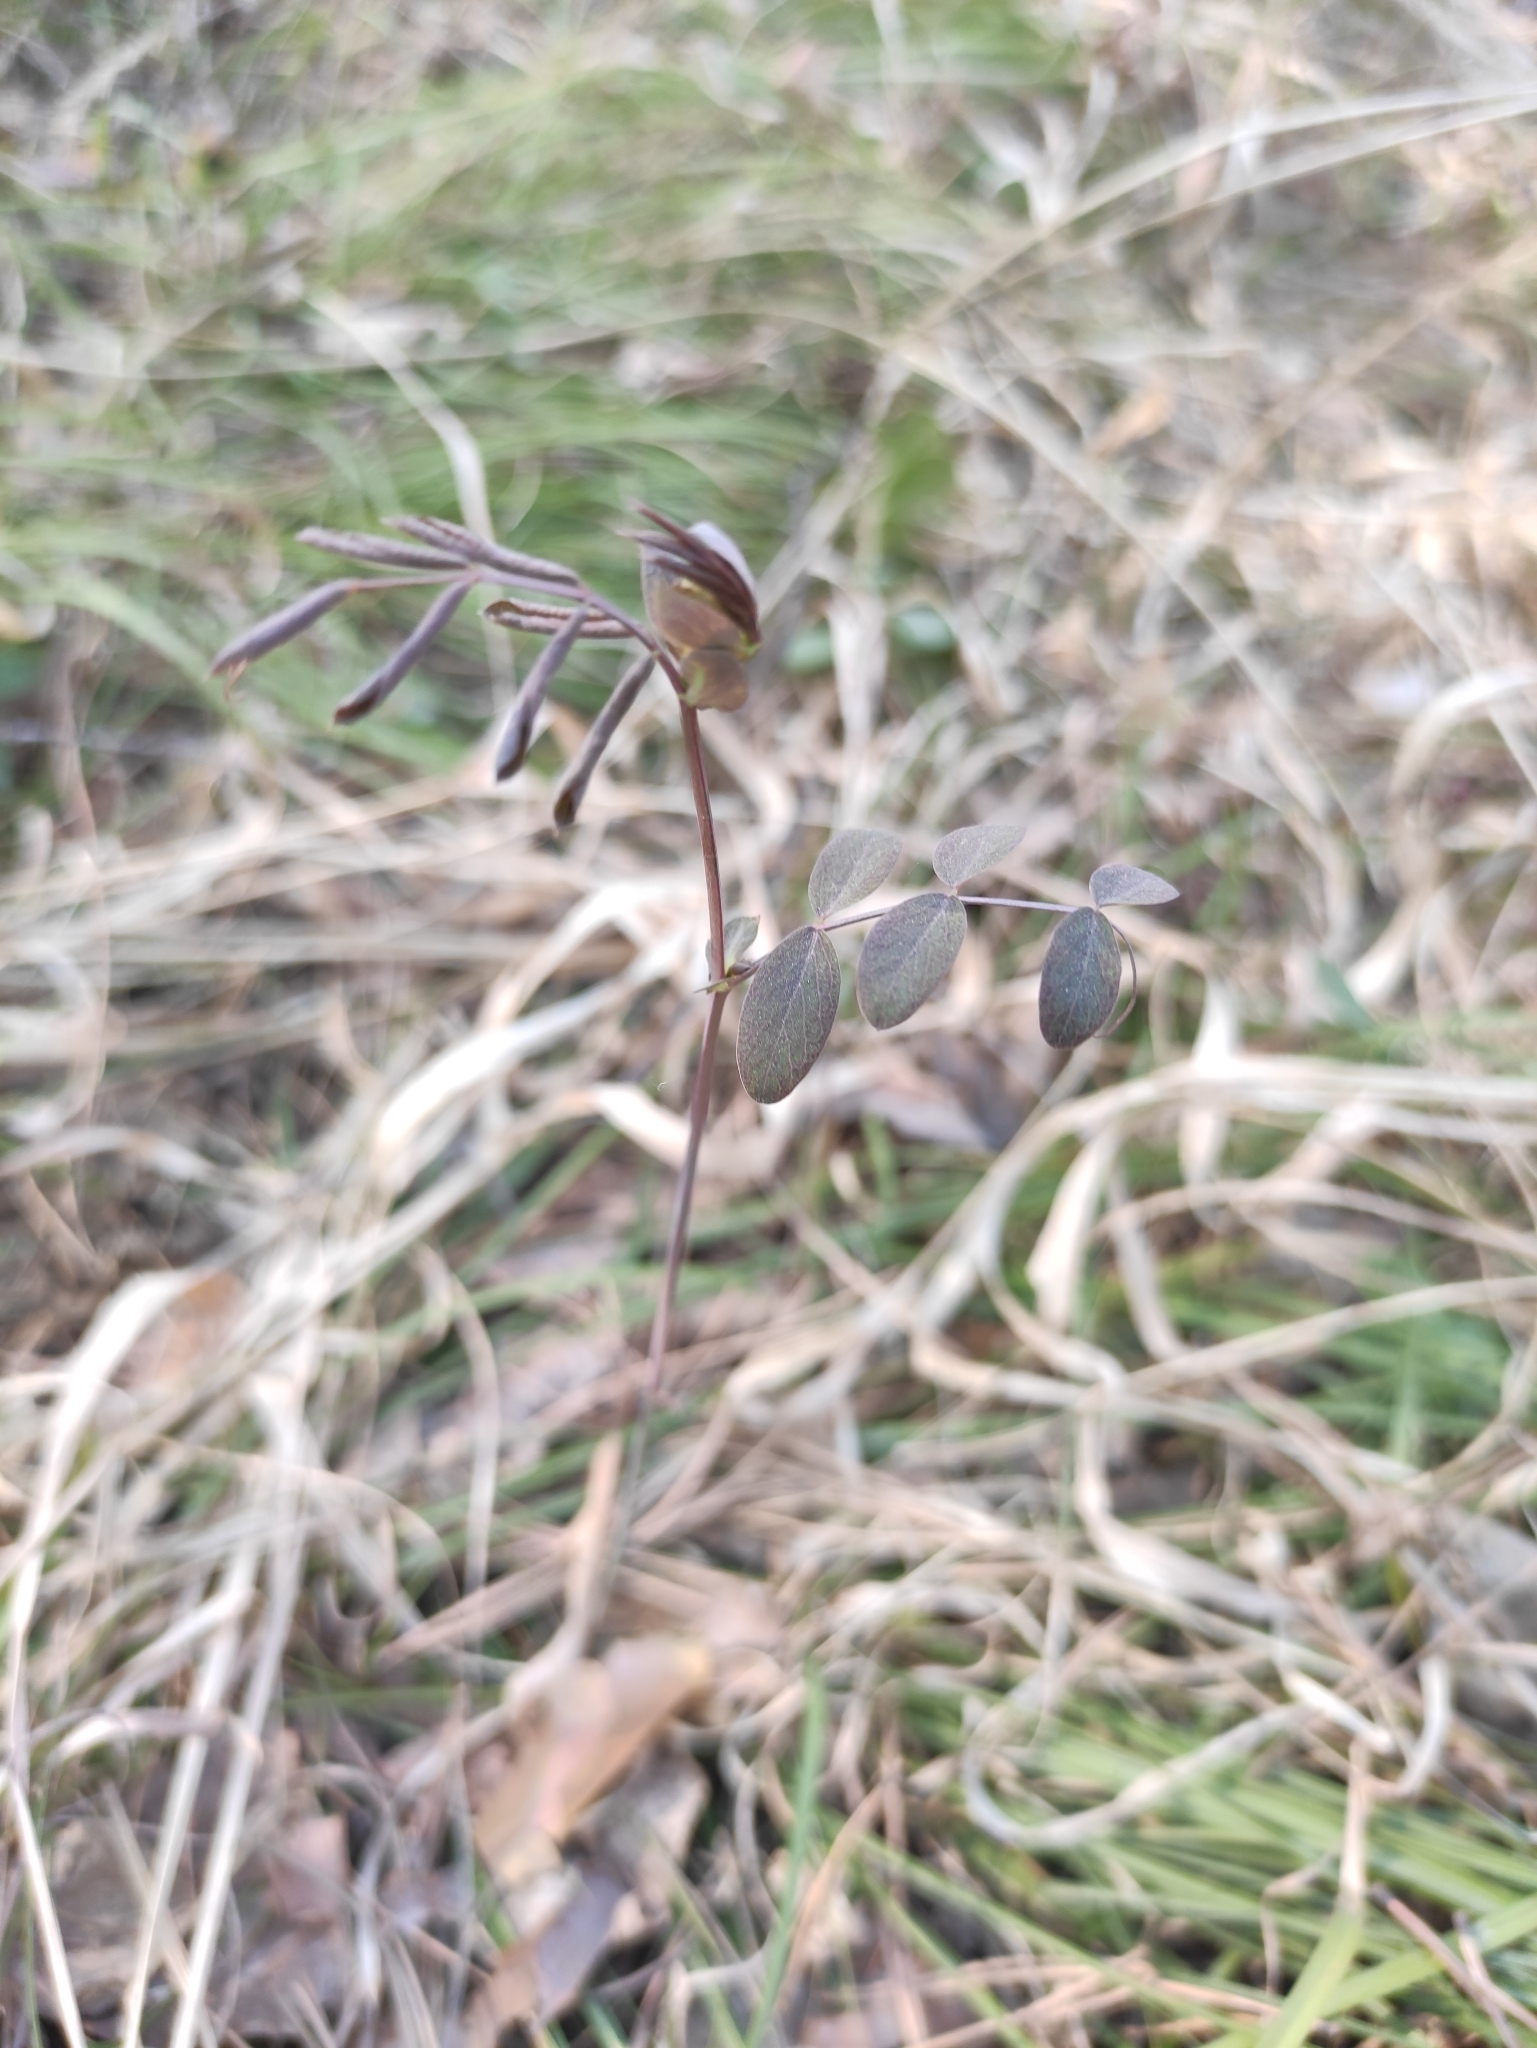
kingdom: Plantae
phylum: Tracheophyta
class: Magnoliopsida
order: Fabales
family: Fabaceae
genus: Lathyrus
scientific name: Lathyrus humilis
